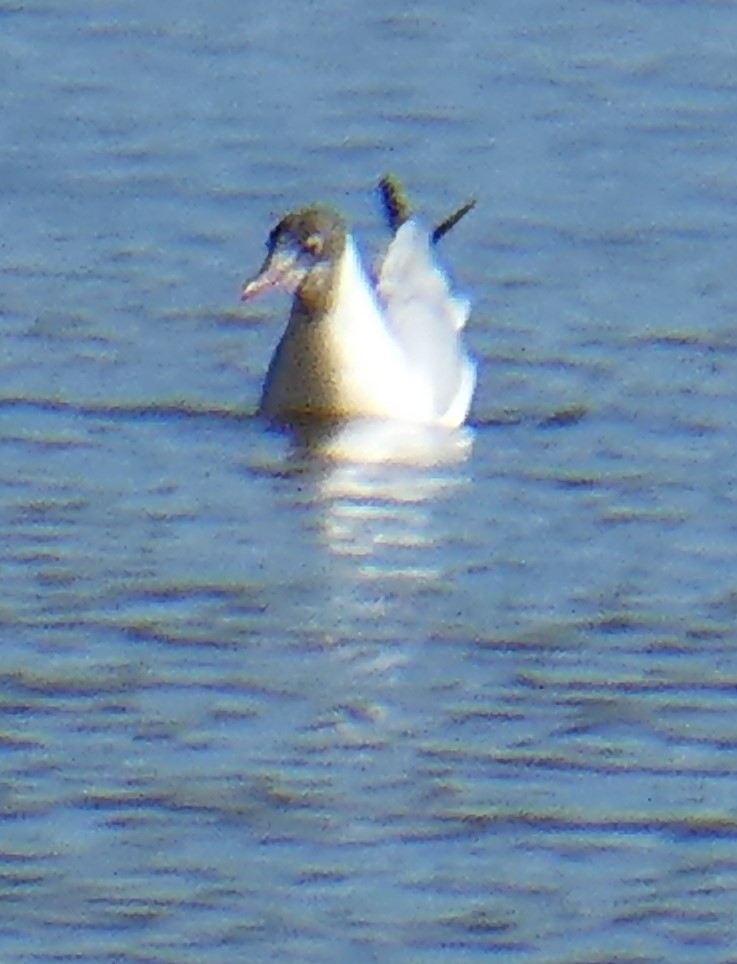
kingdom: Animalia
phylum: Chordata
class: Aves
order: Charadriiformes
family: Laridae
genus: Chroicocephalus
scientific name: Chroicocephalus ridibundus
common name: Black-headed gull
